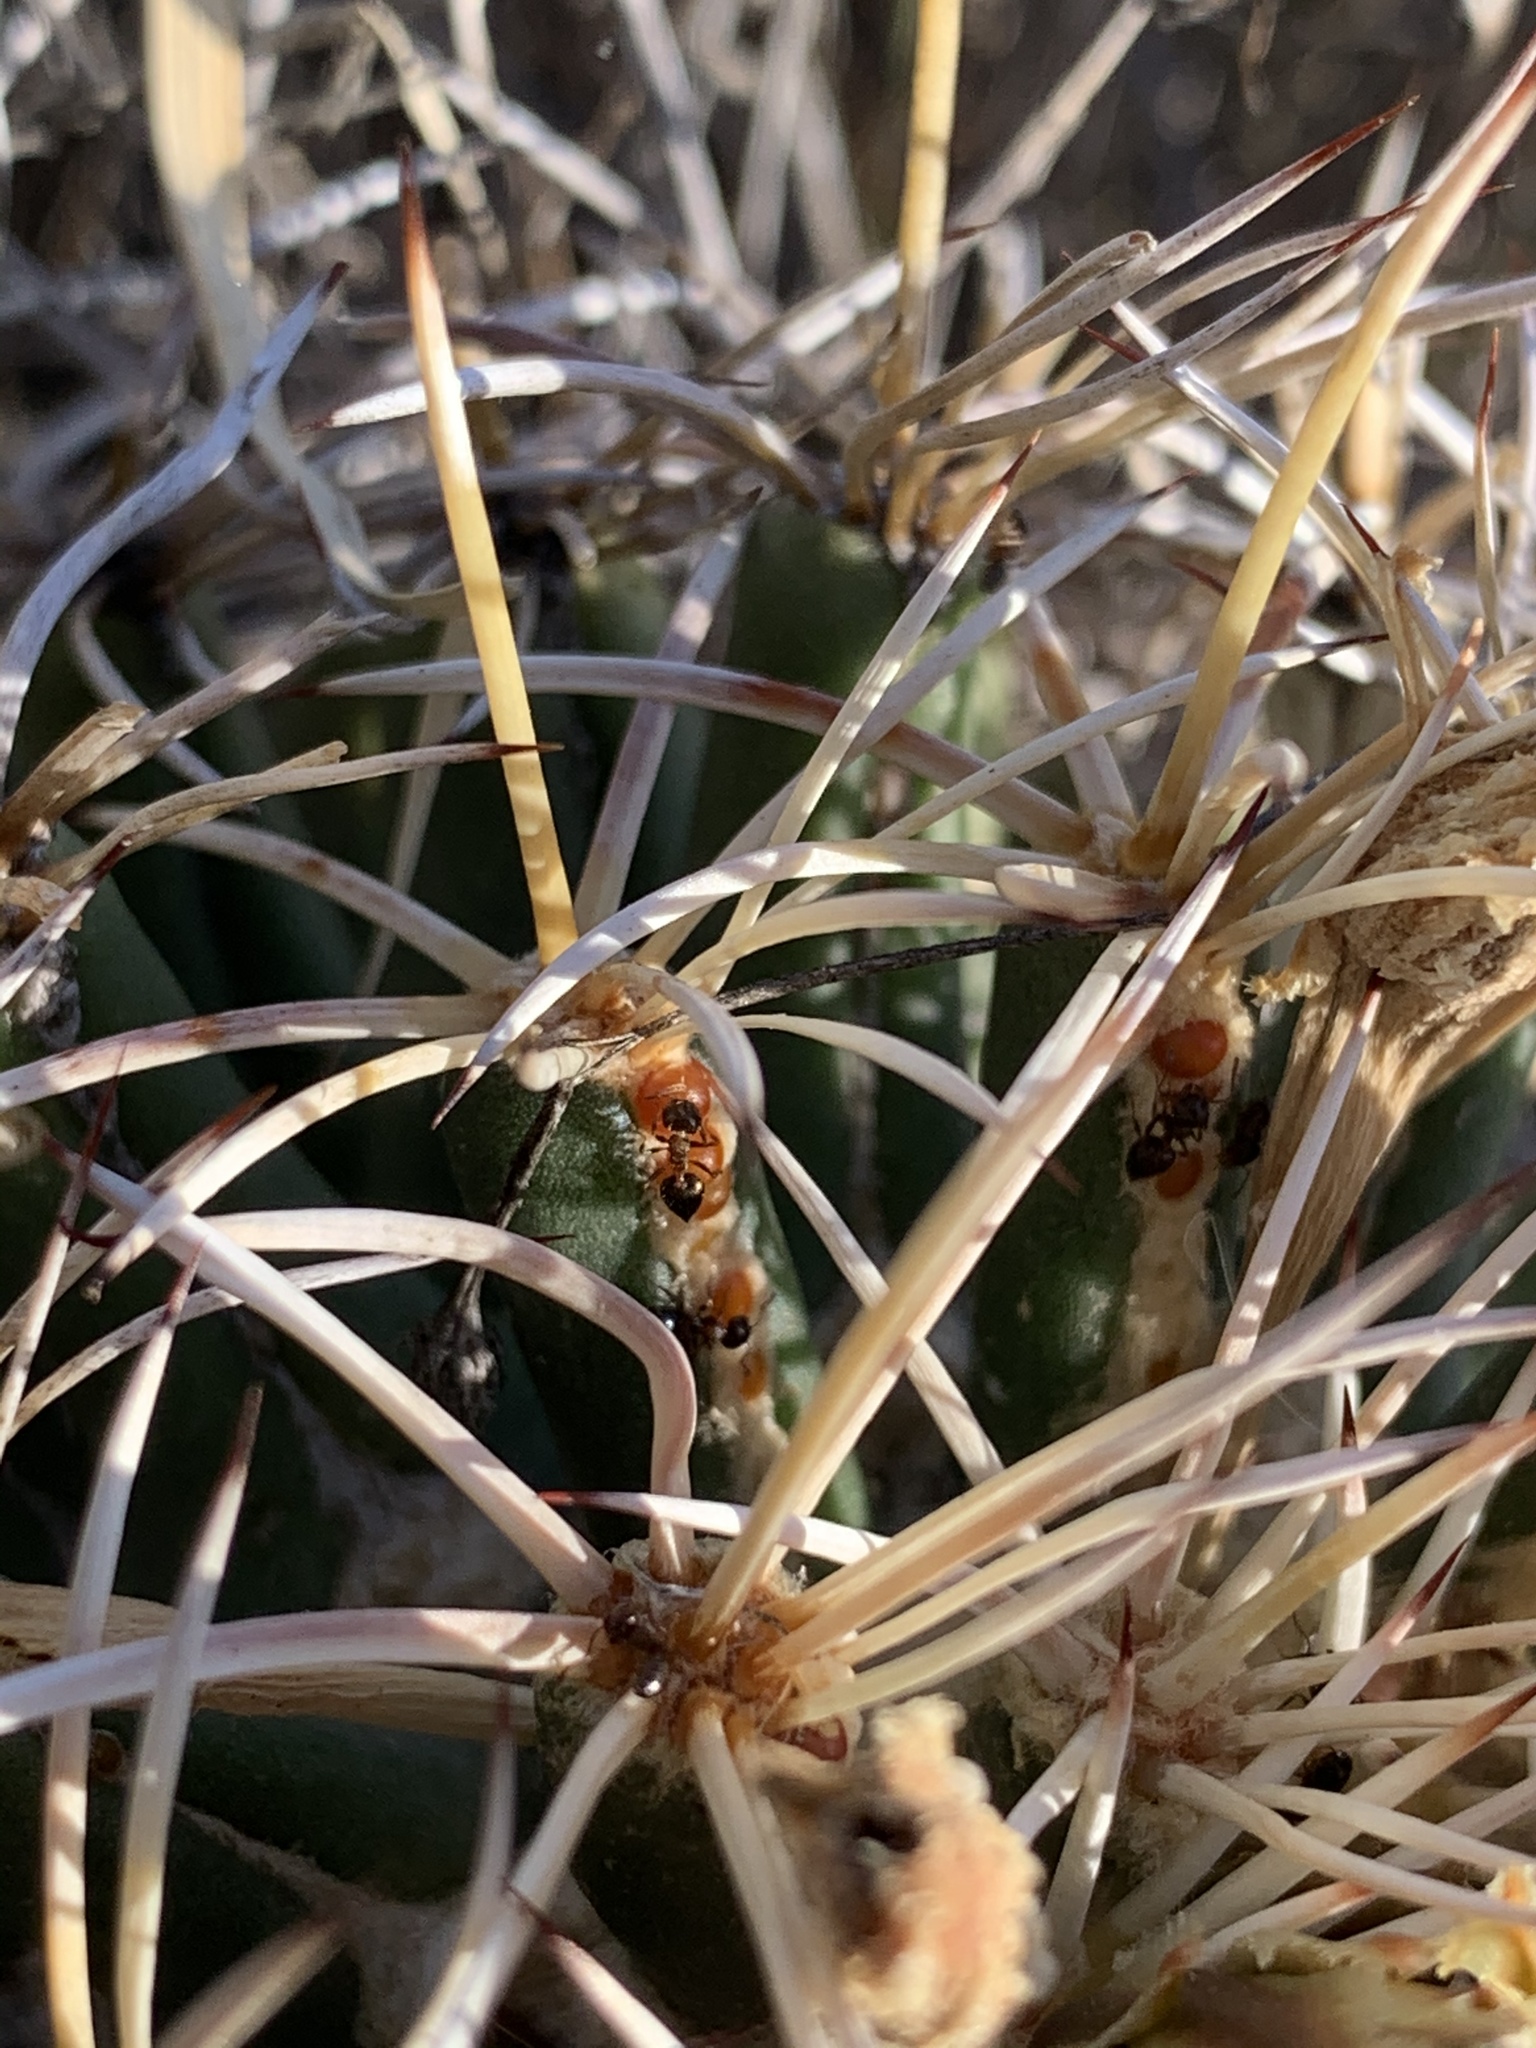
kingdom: Plantae
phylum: Tracheophyta
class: Magnoliopsida
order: Caryophyllales
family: Cactaceae
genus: Coryphantha
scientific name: Coryphantha robustispina
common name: Pima pineapple cactus
